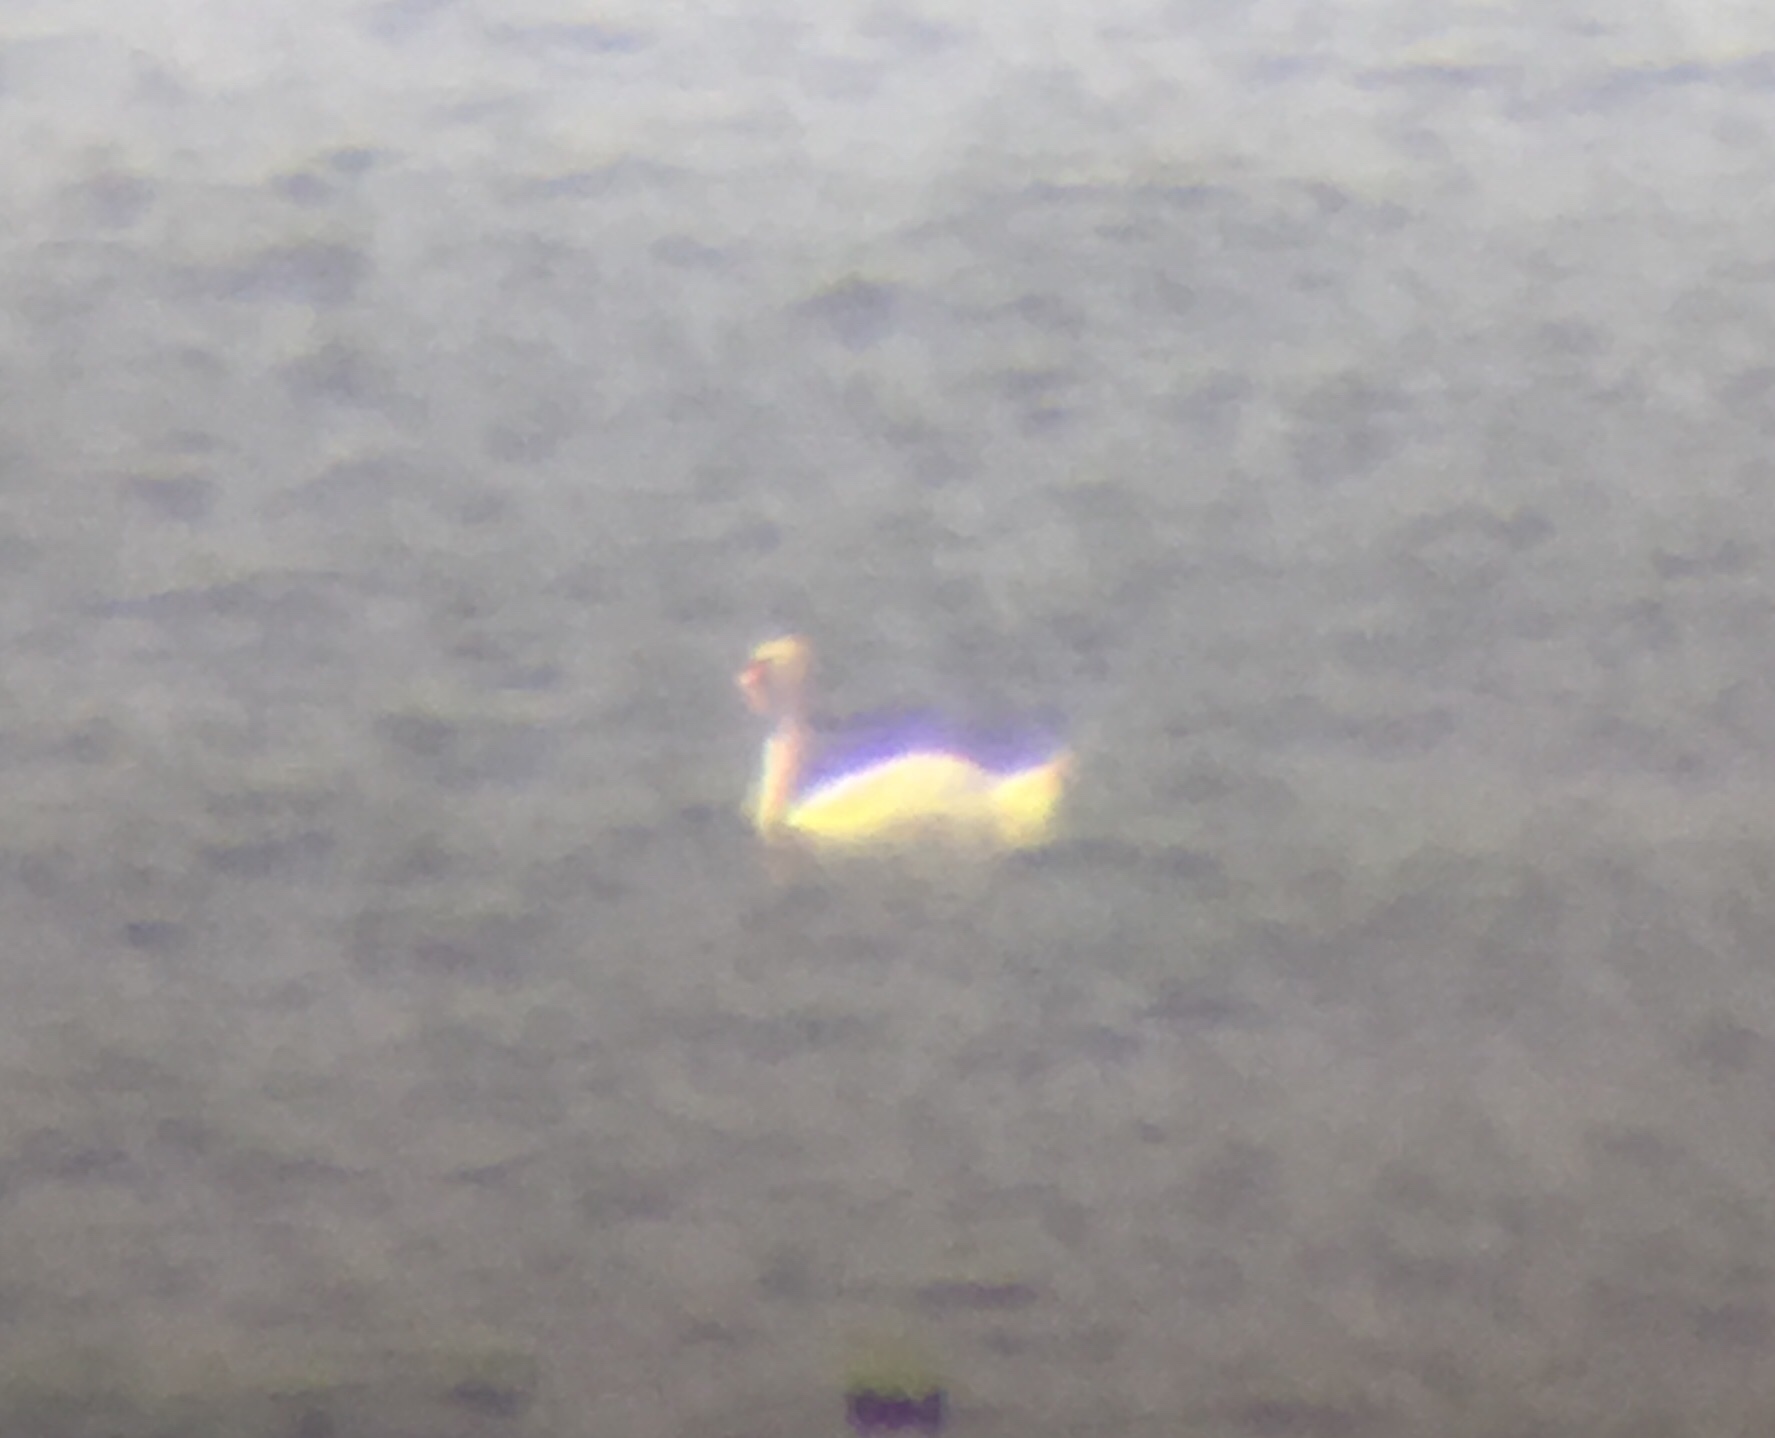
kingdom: Animalia
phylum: Chordata
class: Aves
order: Anseriformes
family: Anatidae
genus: Cygnus
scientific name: Cygnus olor
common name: Mute swan
